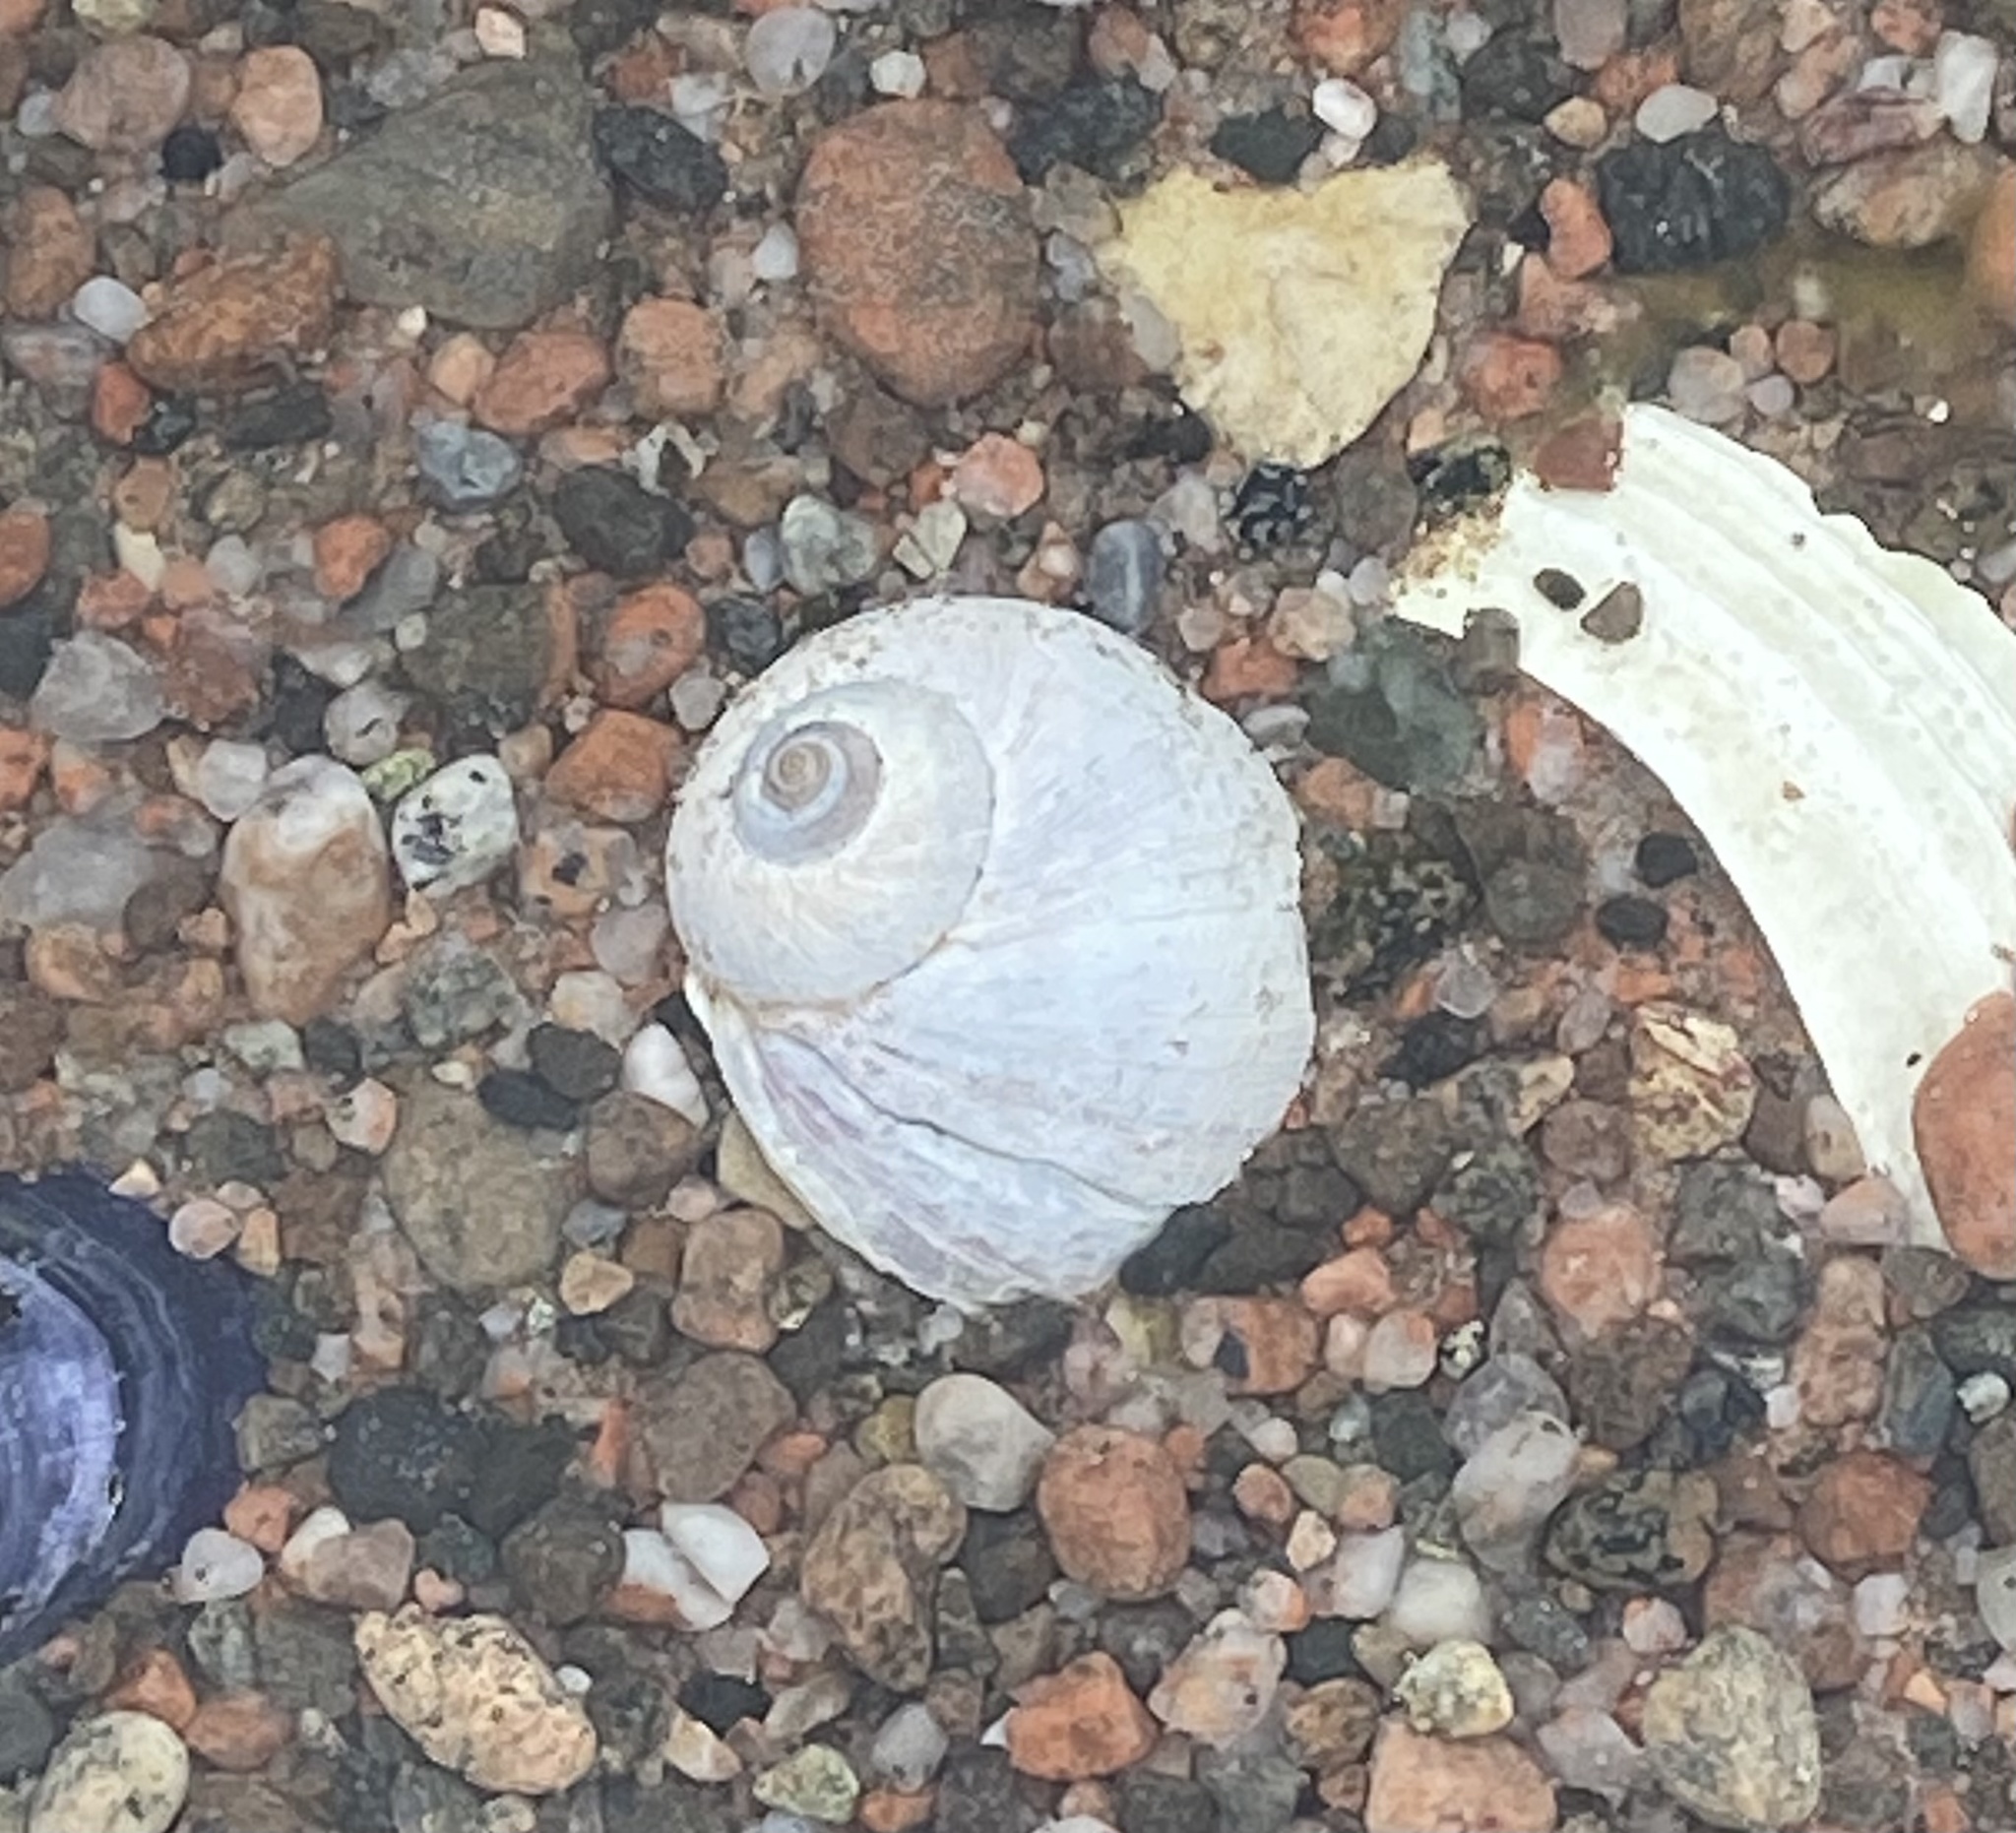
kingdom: Animalia
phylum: Mollusca
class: Gastropoda
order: Littorinimorpha
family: Naticidae
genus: Euspira
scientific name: Euspira heros
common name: Common northern moonsnail
